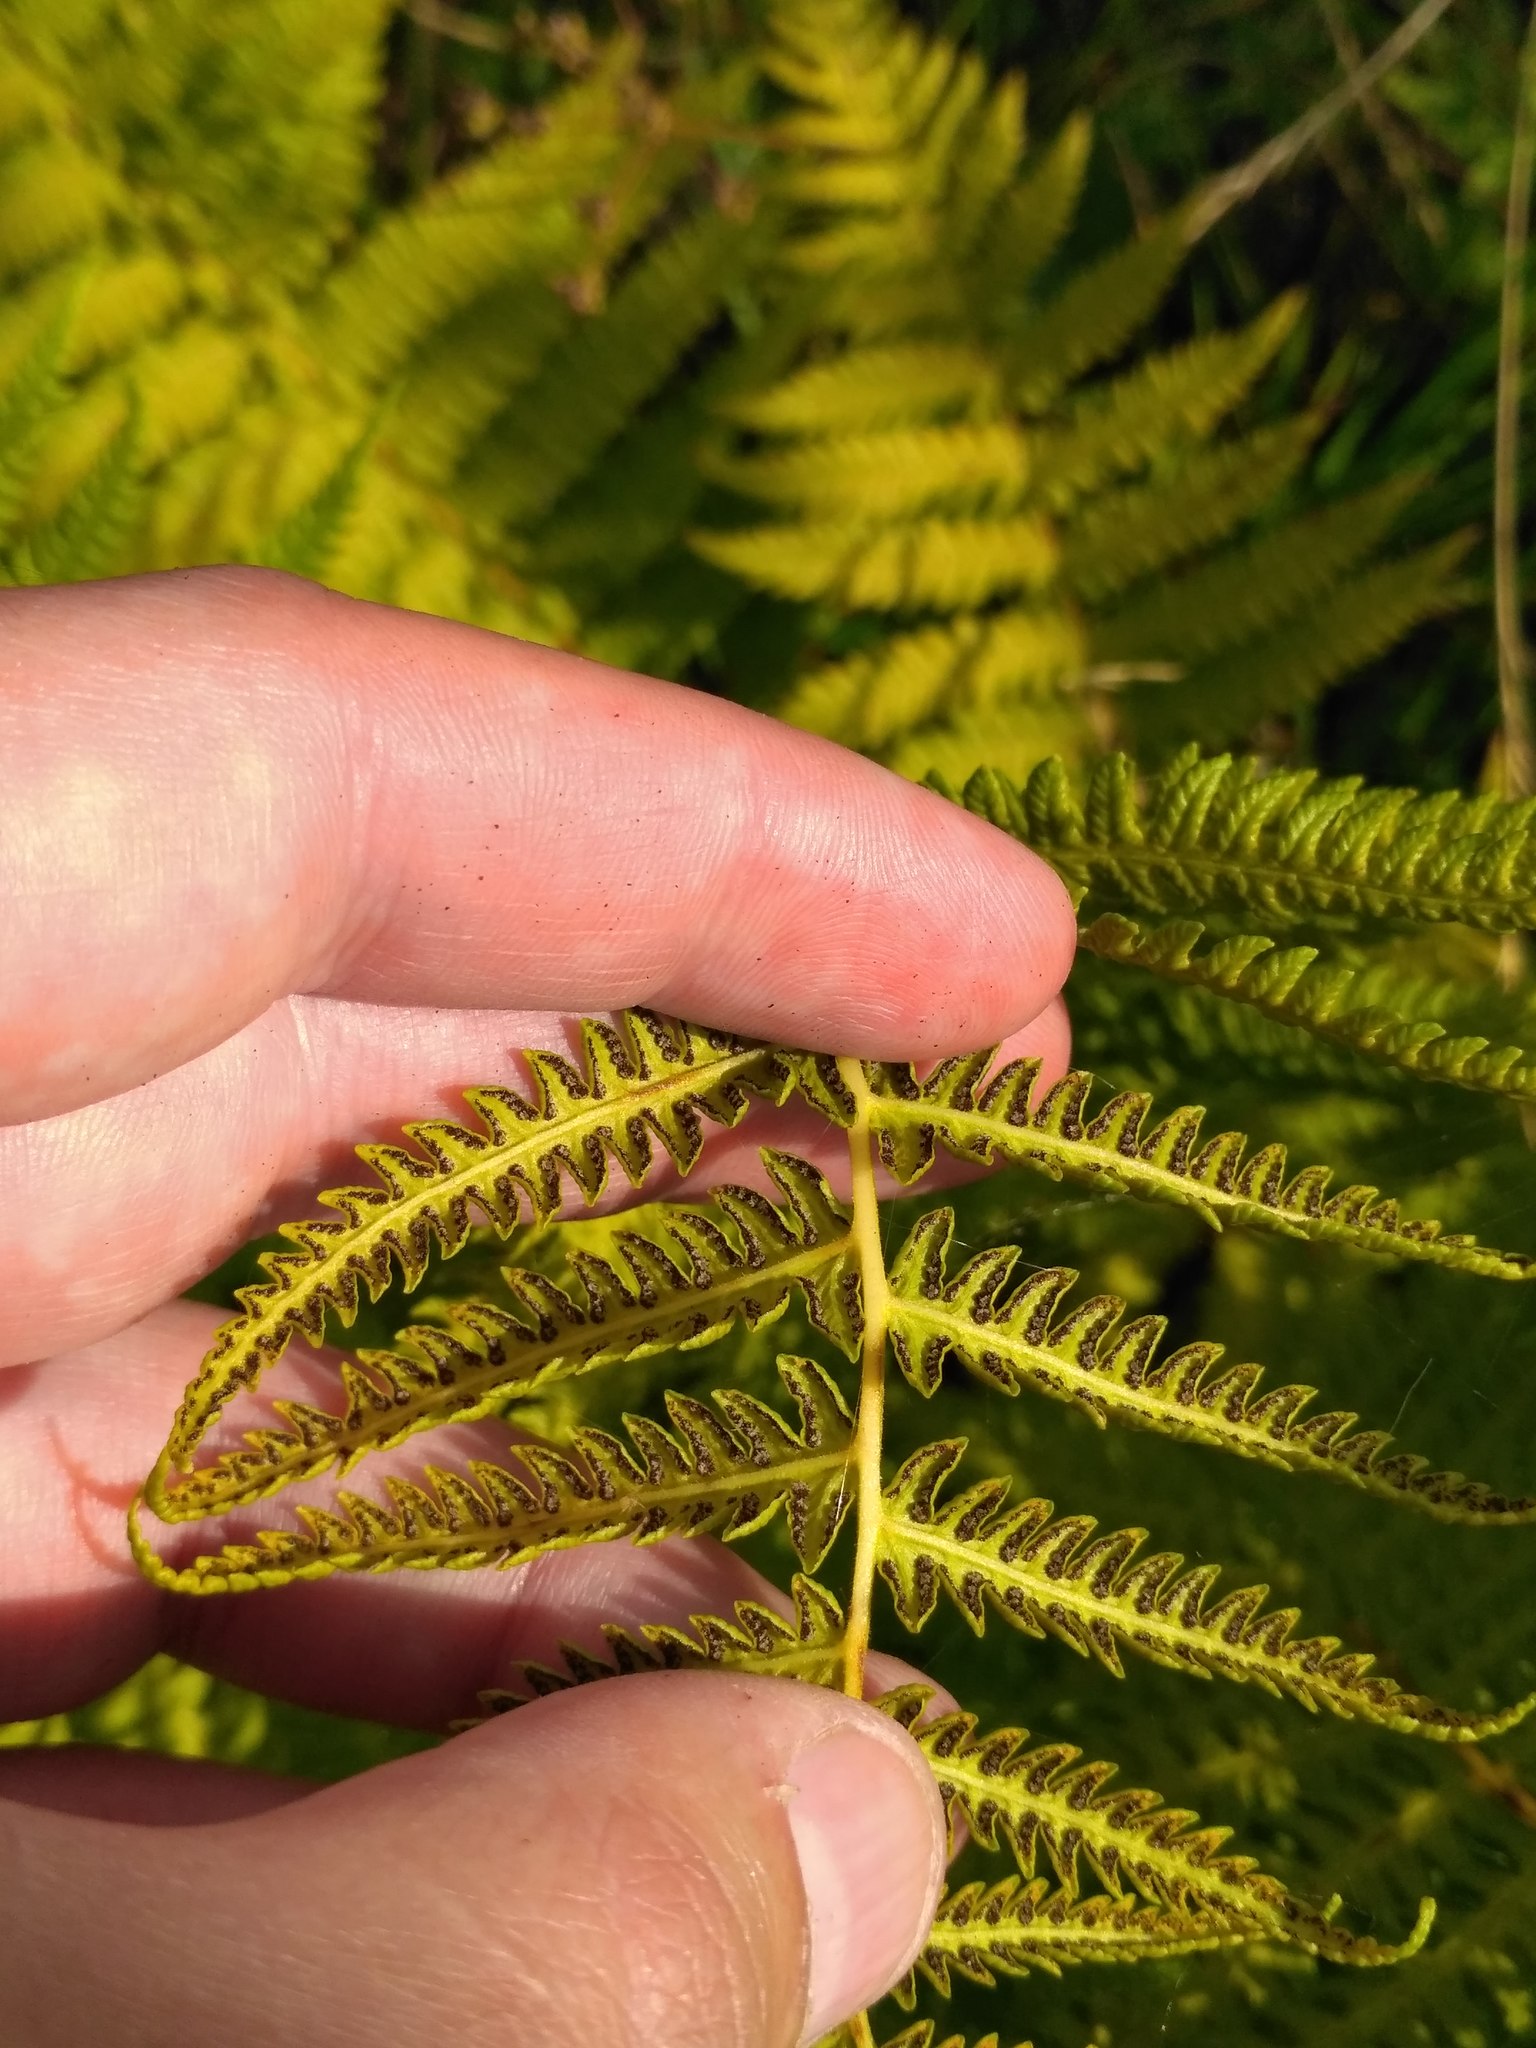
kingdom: Plantae
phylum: Tracheophyta
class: Polypodiopsida
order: Polypodiales
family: Thelypteridaceae
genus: Oreopteris
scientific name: Oreopteris limbosperma
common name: Lemon-scented fern
